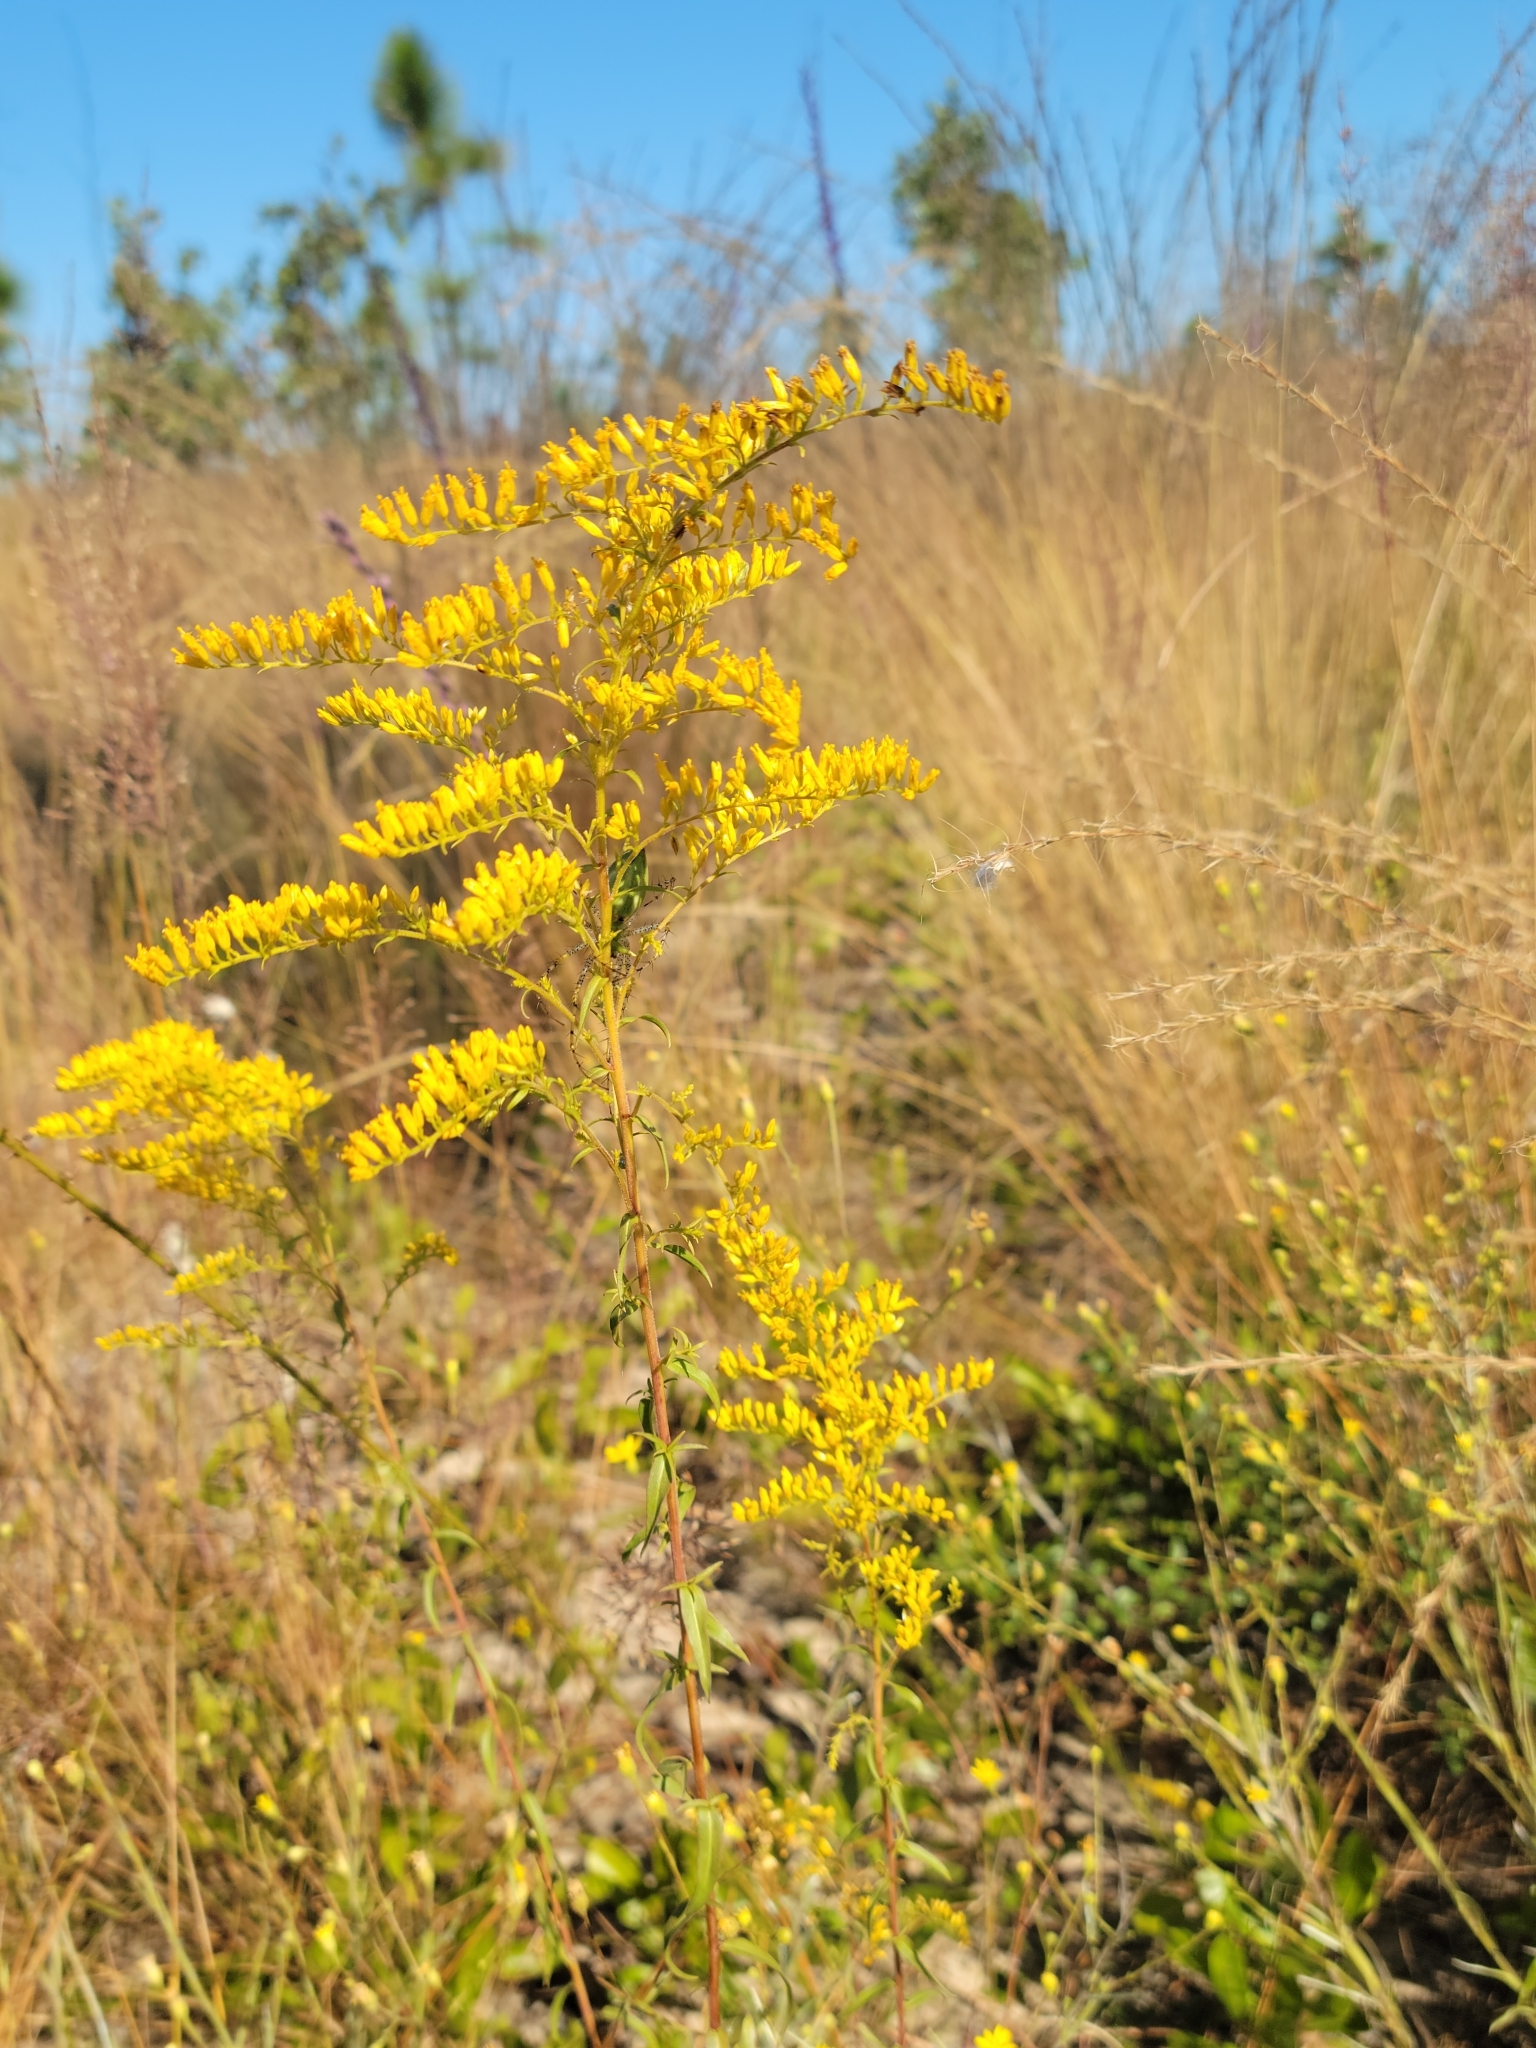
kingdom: Plantae
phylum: Tracheophyta
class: Magnoliopsida
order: Asterales
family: Asteraceae
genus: Solidago
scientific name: Solidago odora
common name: Anise-scented goldenrod
